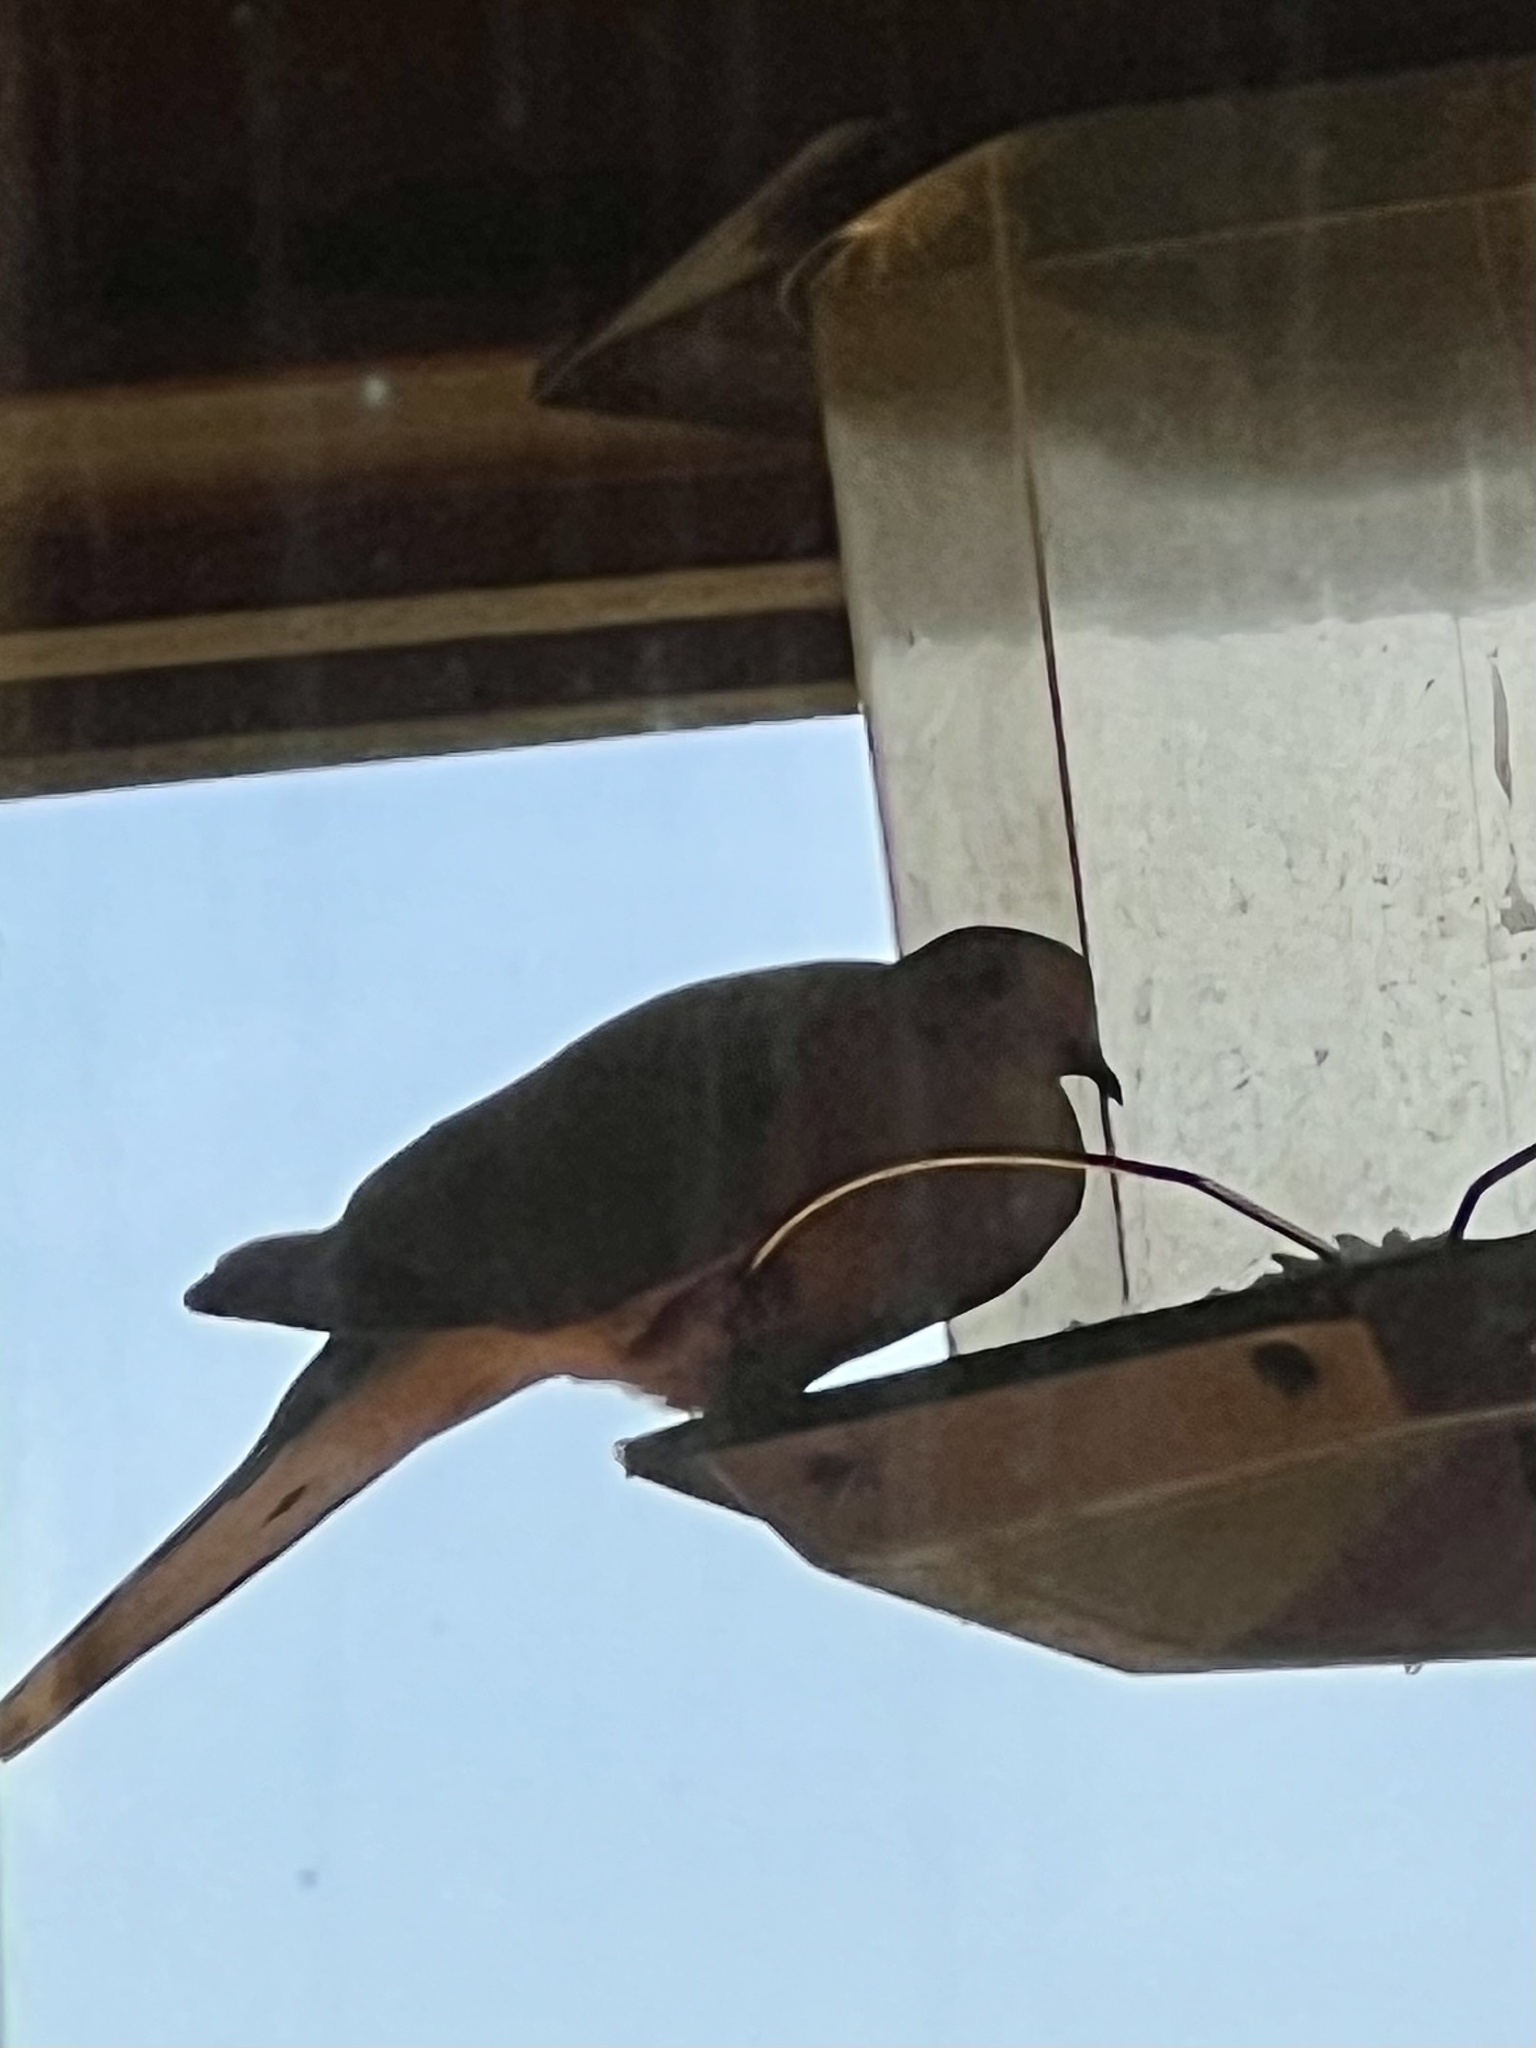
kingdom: Animalia
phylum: Chordata
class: Aves
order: Columbiformes
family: Columbidae
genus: Zenaida
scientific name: Zenaida macroura
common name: Mourning dove
